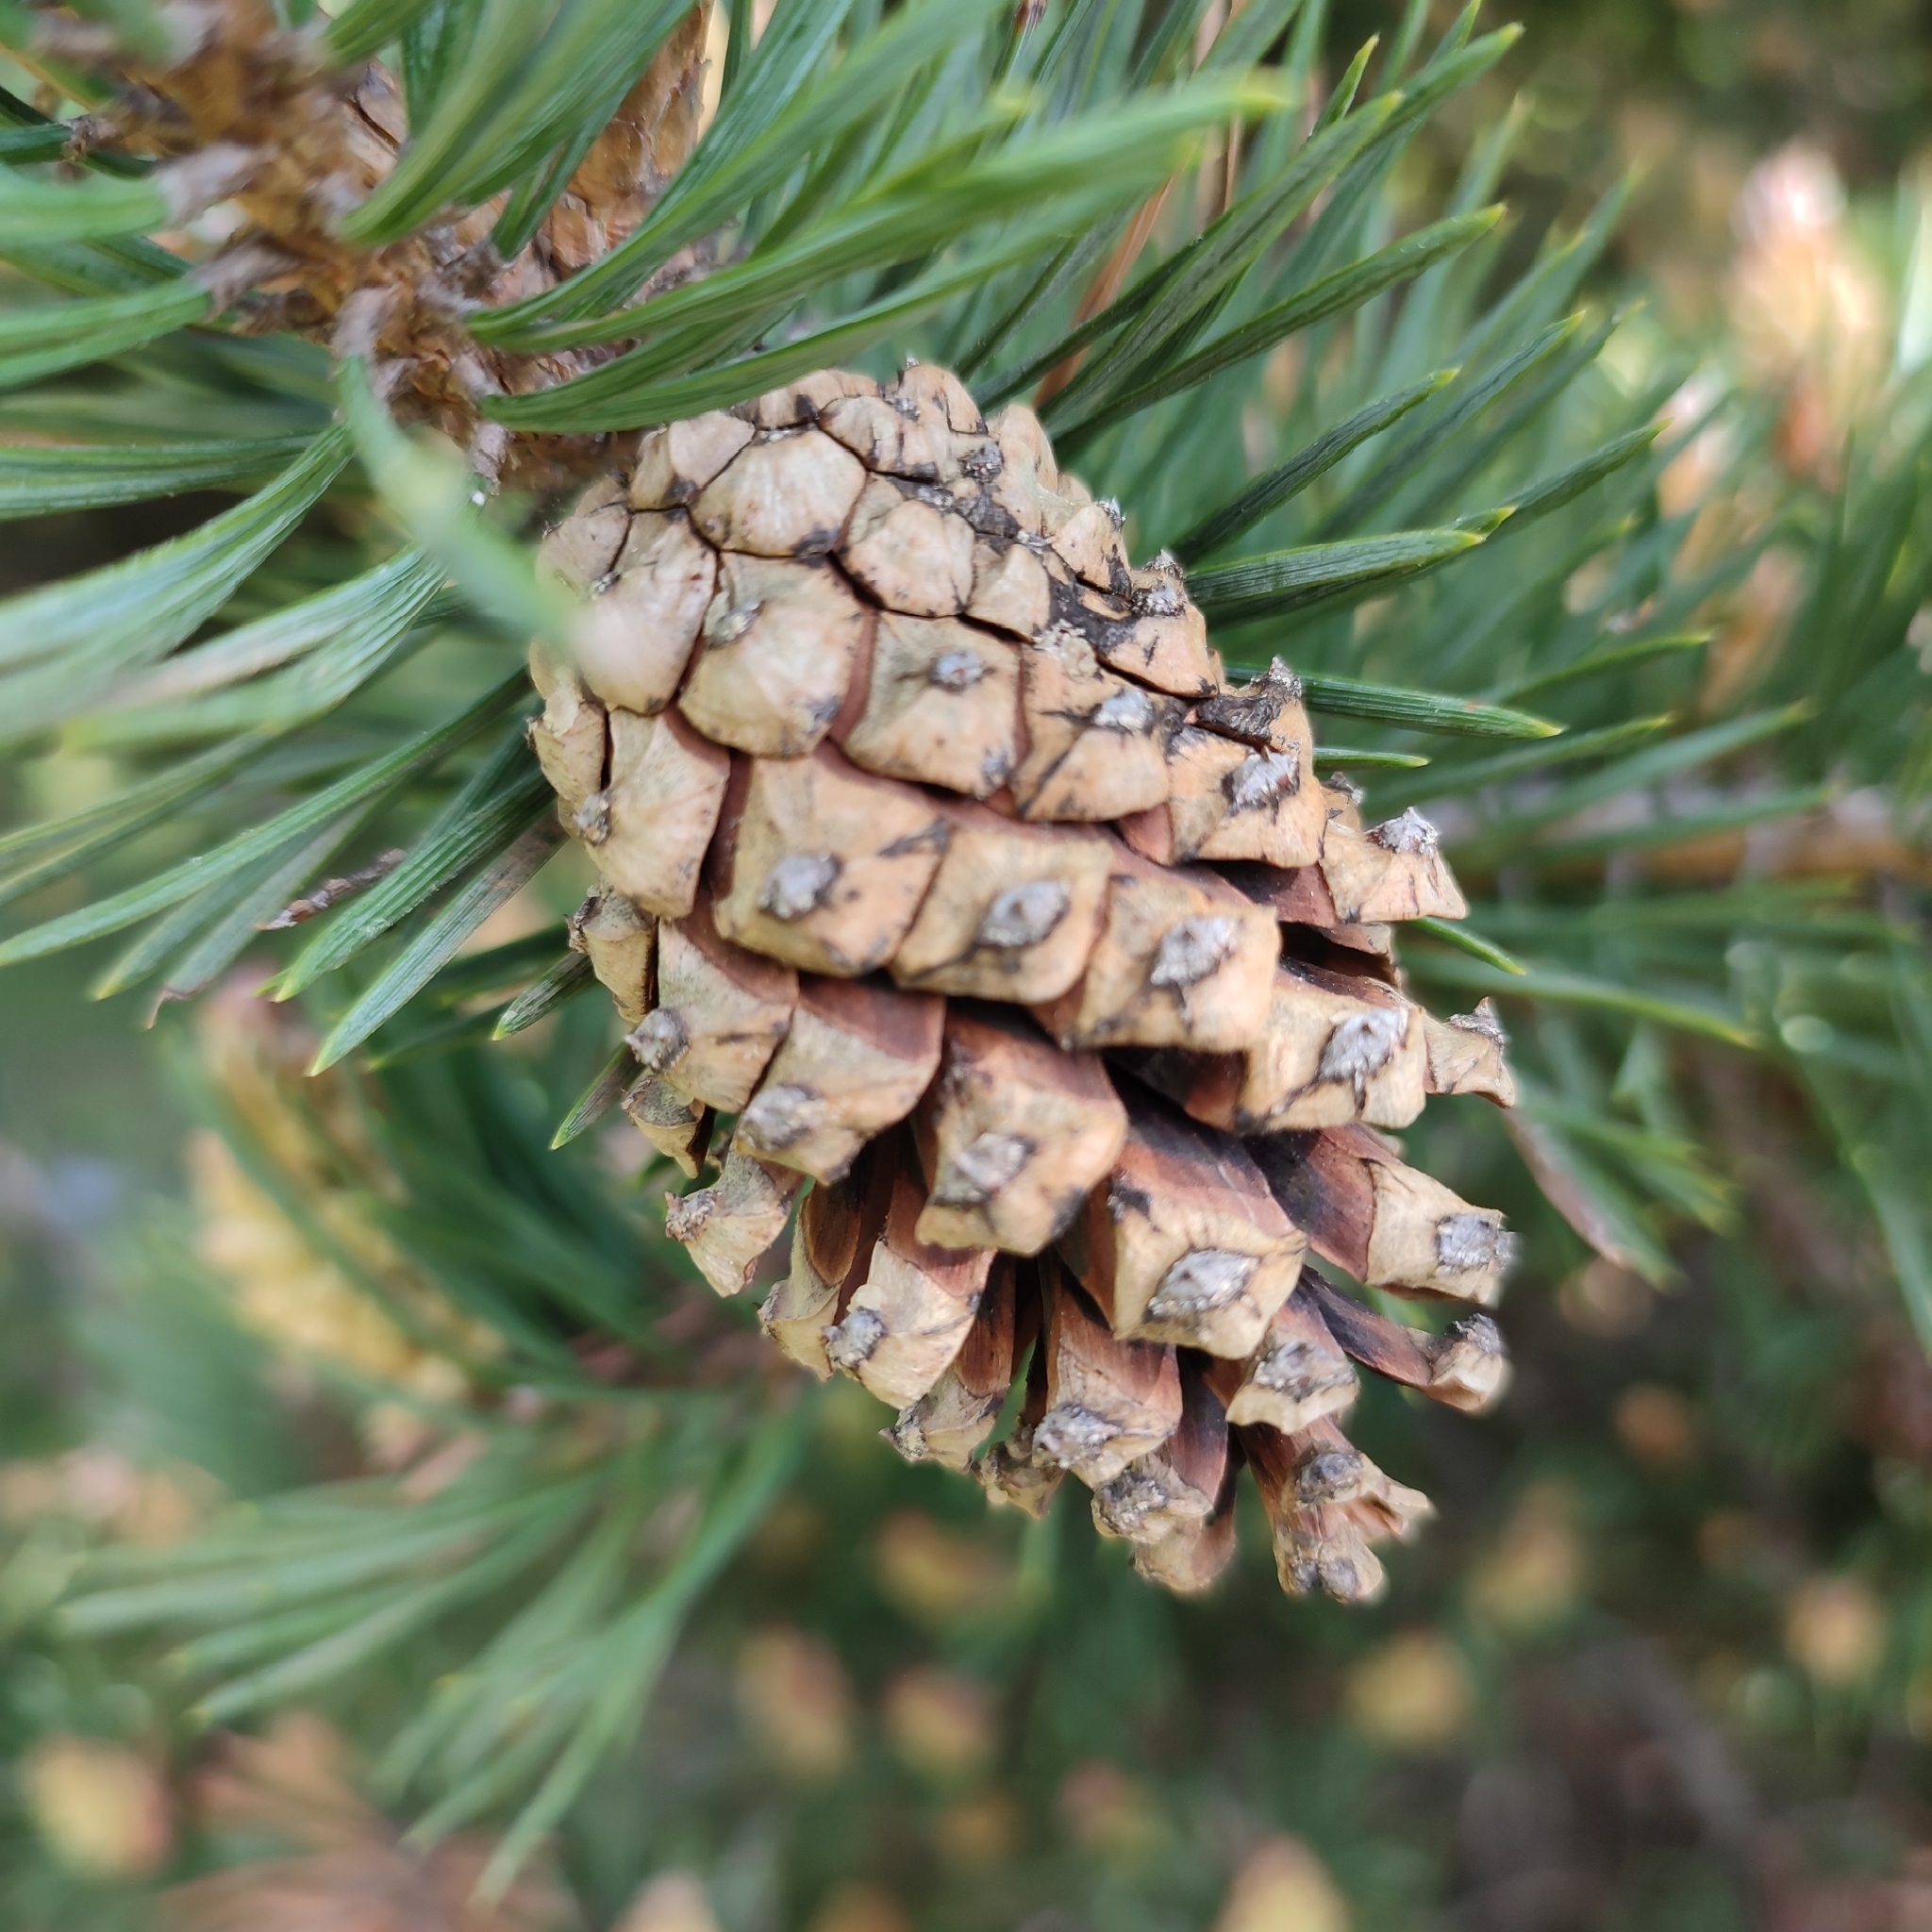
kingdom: Plantae
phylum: Tracheophyta
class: Pinopsida
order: Pinales
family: Pinaceae
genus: Pinus
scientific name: Pinus sylvestris
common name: Scots pine
